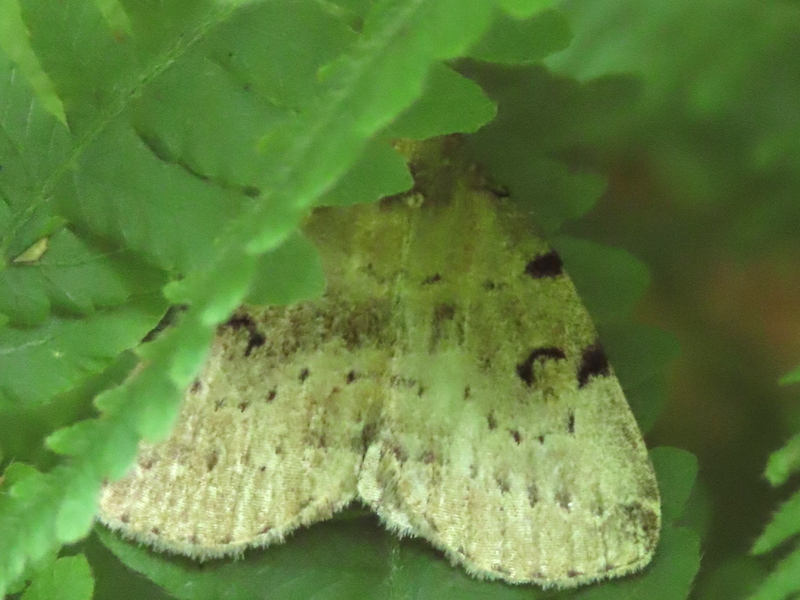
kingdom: Animalia
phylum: Arthropoda
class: Insecta
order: Lepidoptera
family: Erebidae
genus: Zanclognatha
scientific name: Zanclognatha lituralis
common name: Lettered fan-foot
